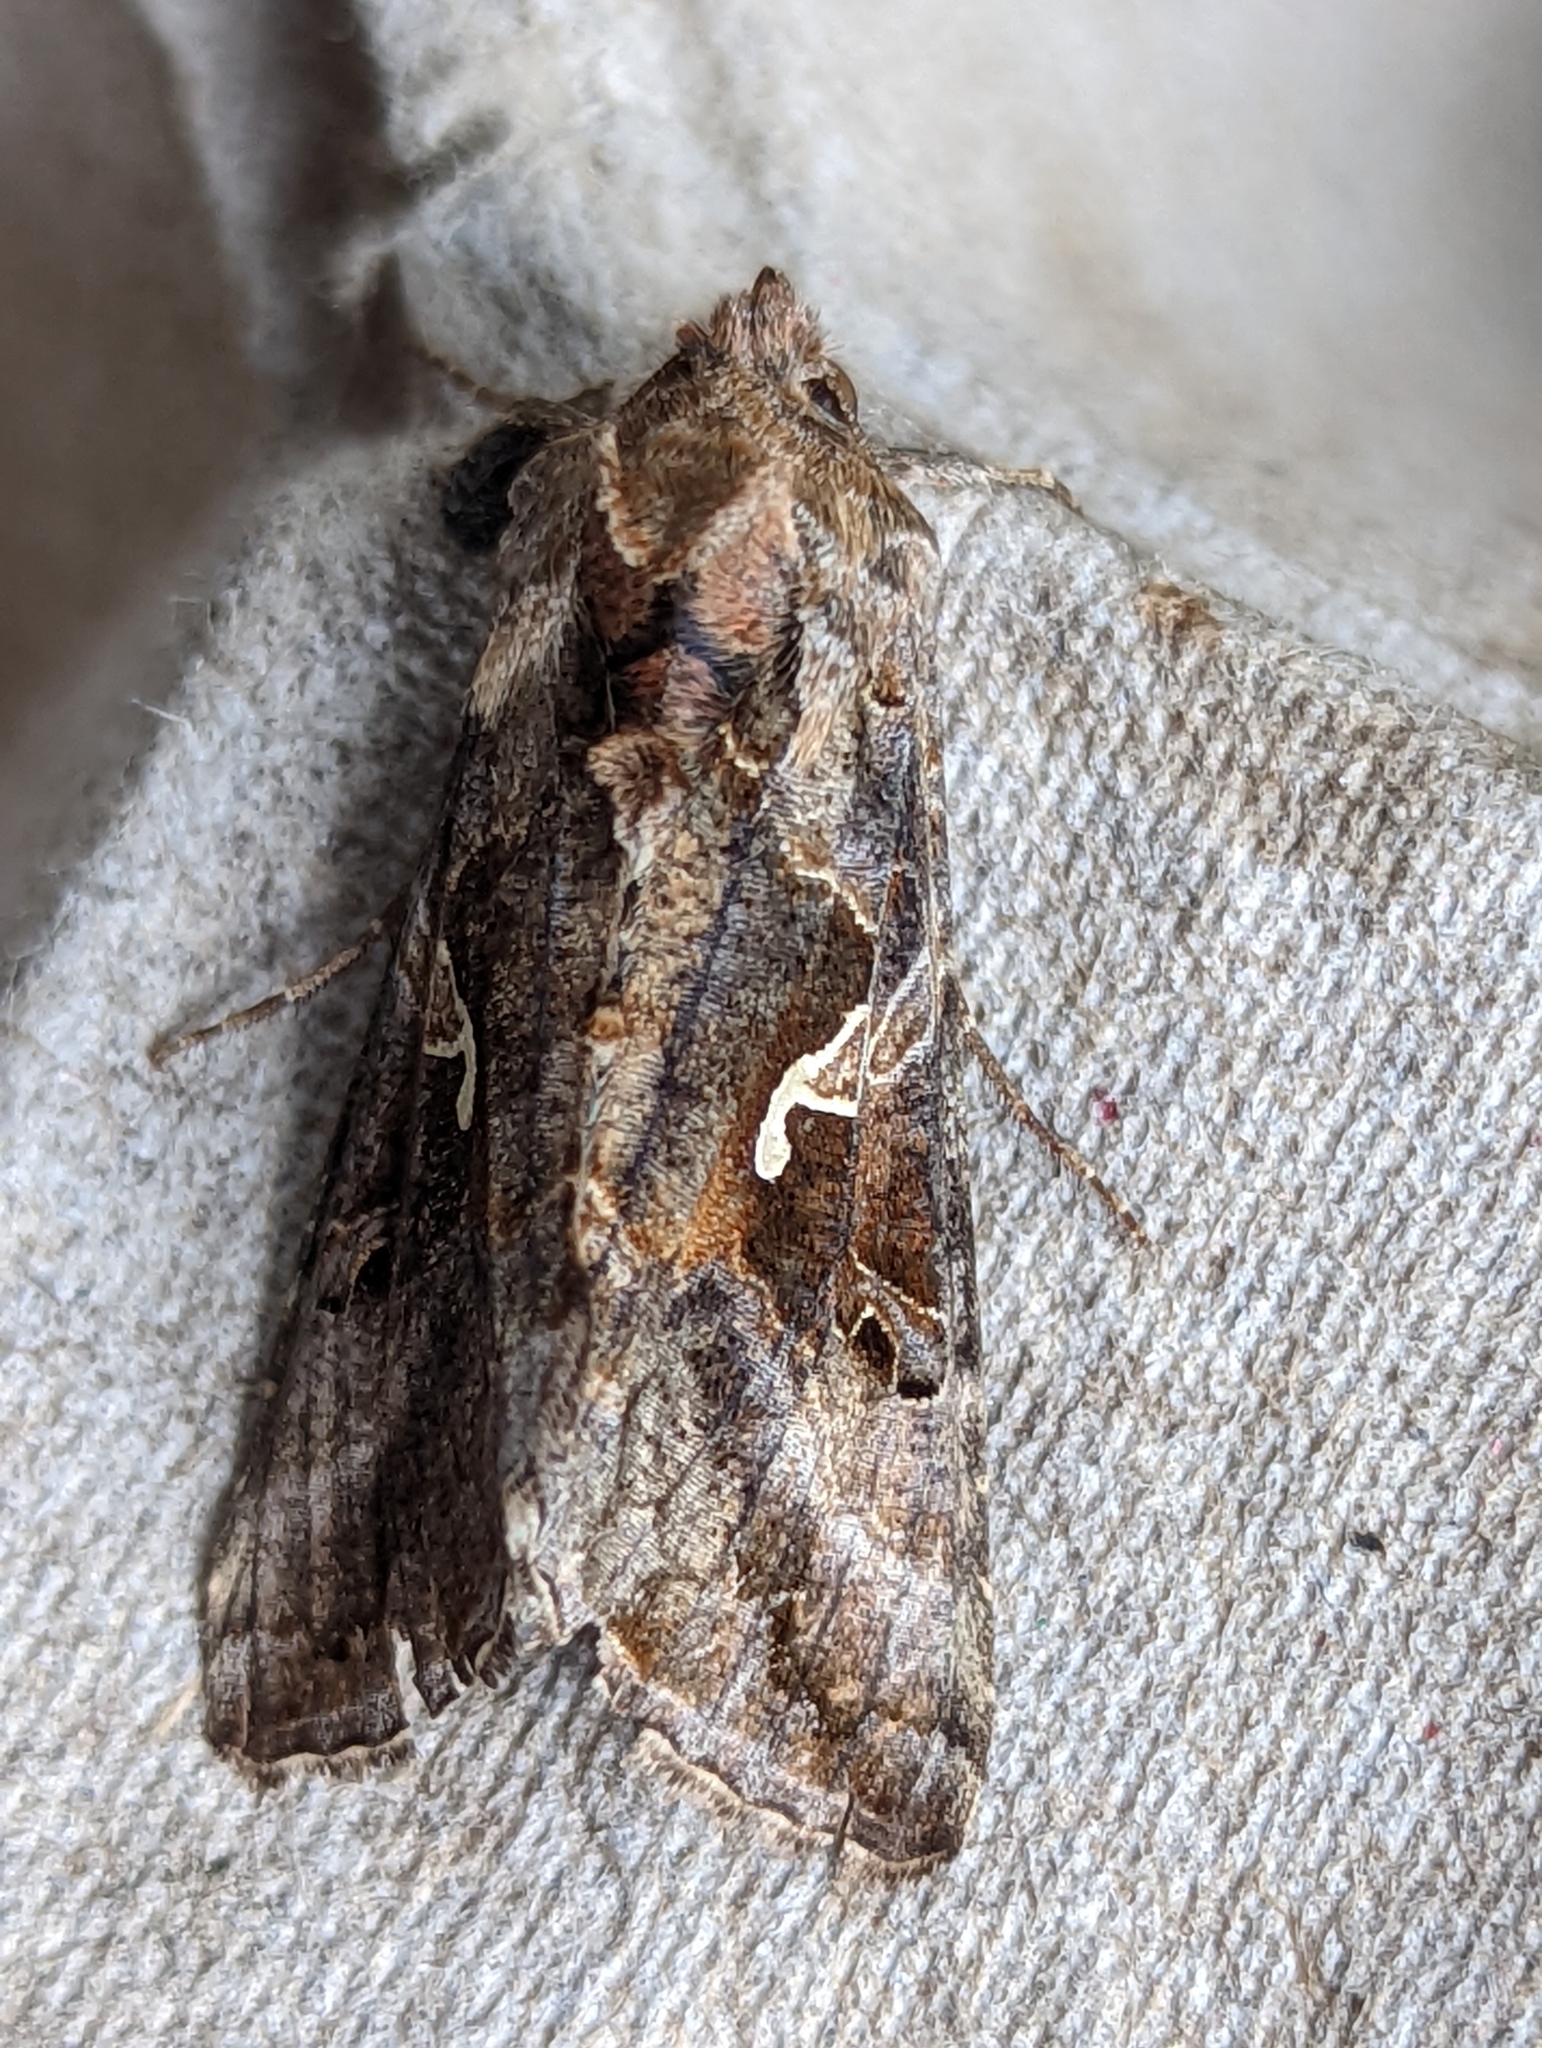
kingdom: Animalia
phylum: Arthropoda
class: Insecta
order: Lepidoptera
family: Noctuidae
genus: Autographa
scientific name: Autographa gamma
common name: Silver y
